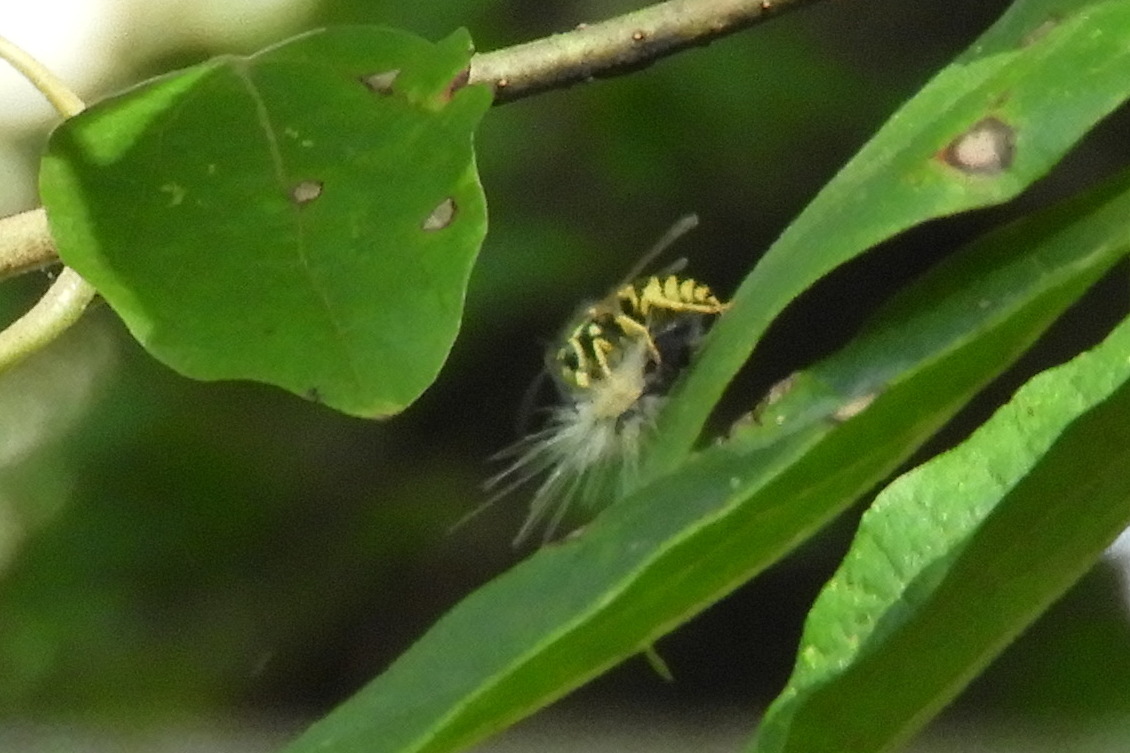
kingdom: Animalia
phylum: Arthropoda
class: Insecta
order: Hymenoptera
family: Vespidae
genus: Vespula
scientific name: Vespula maculifrons
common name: Eastern yellowjacket
